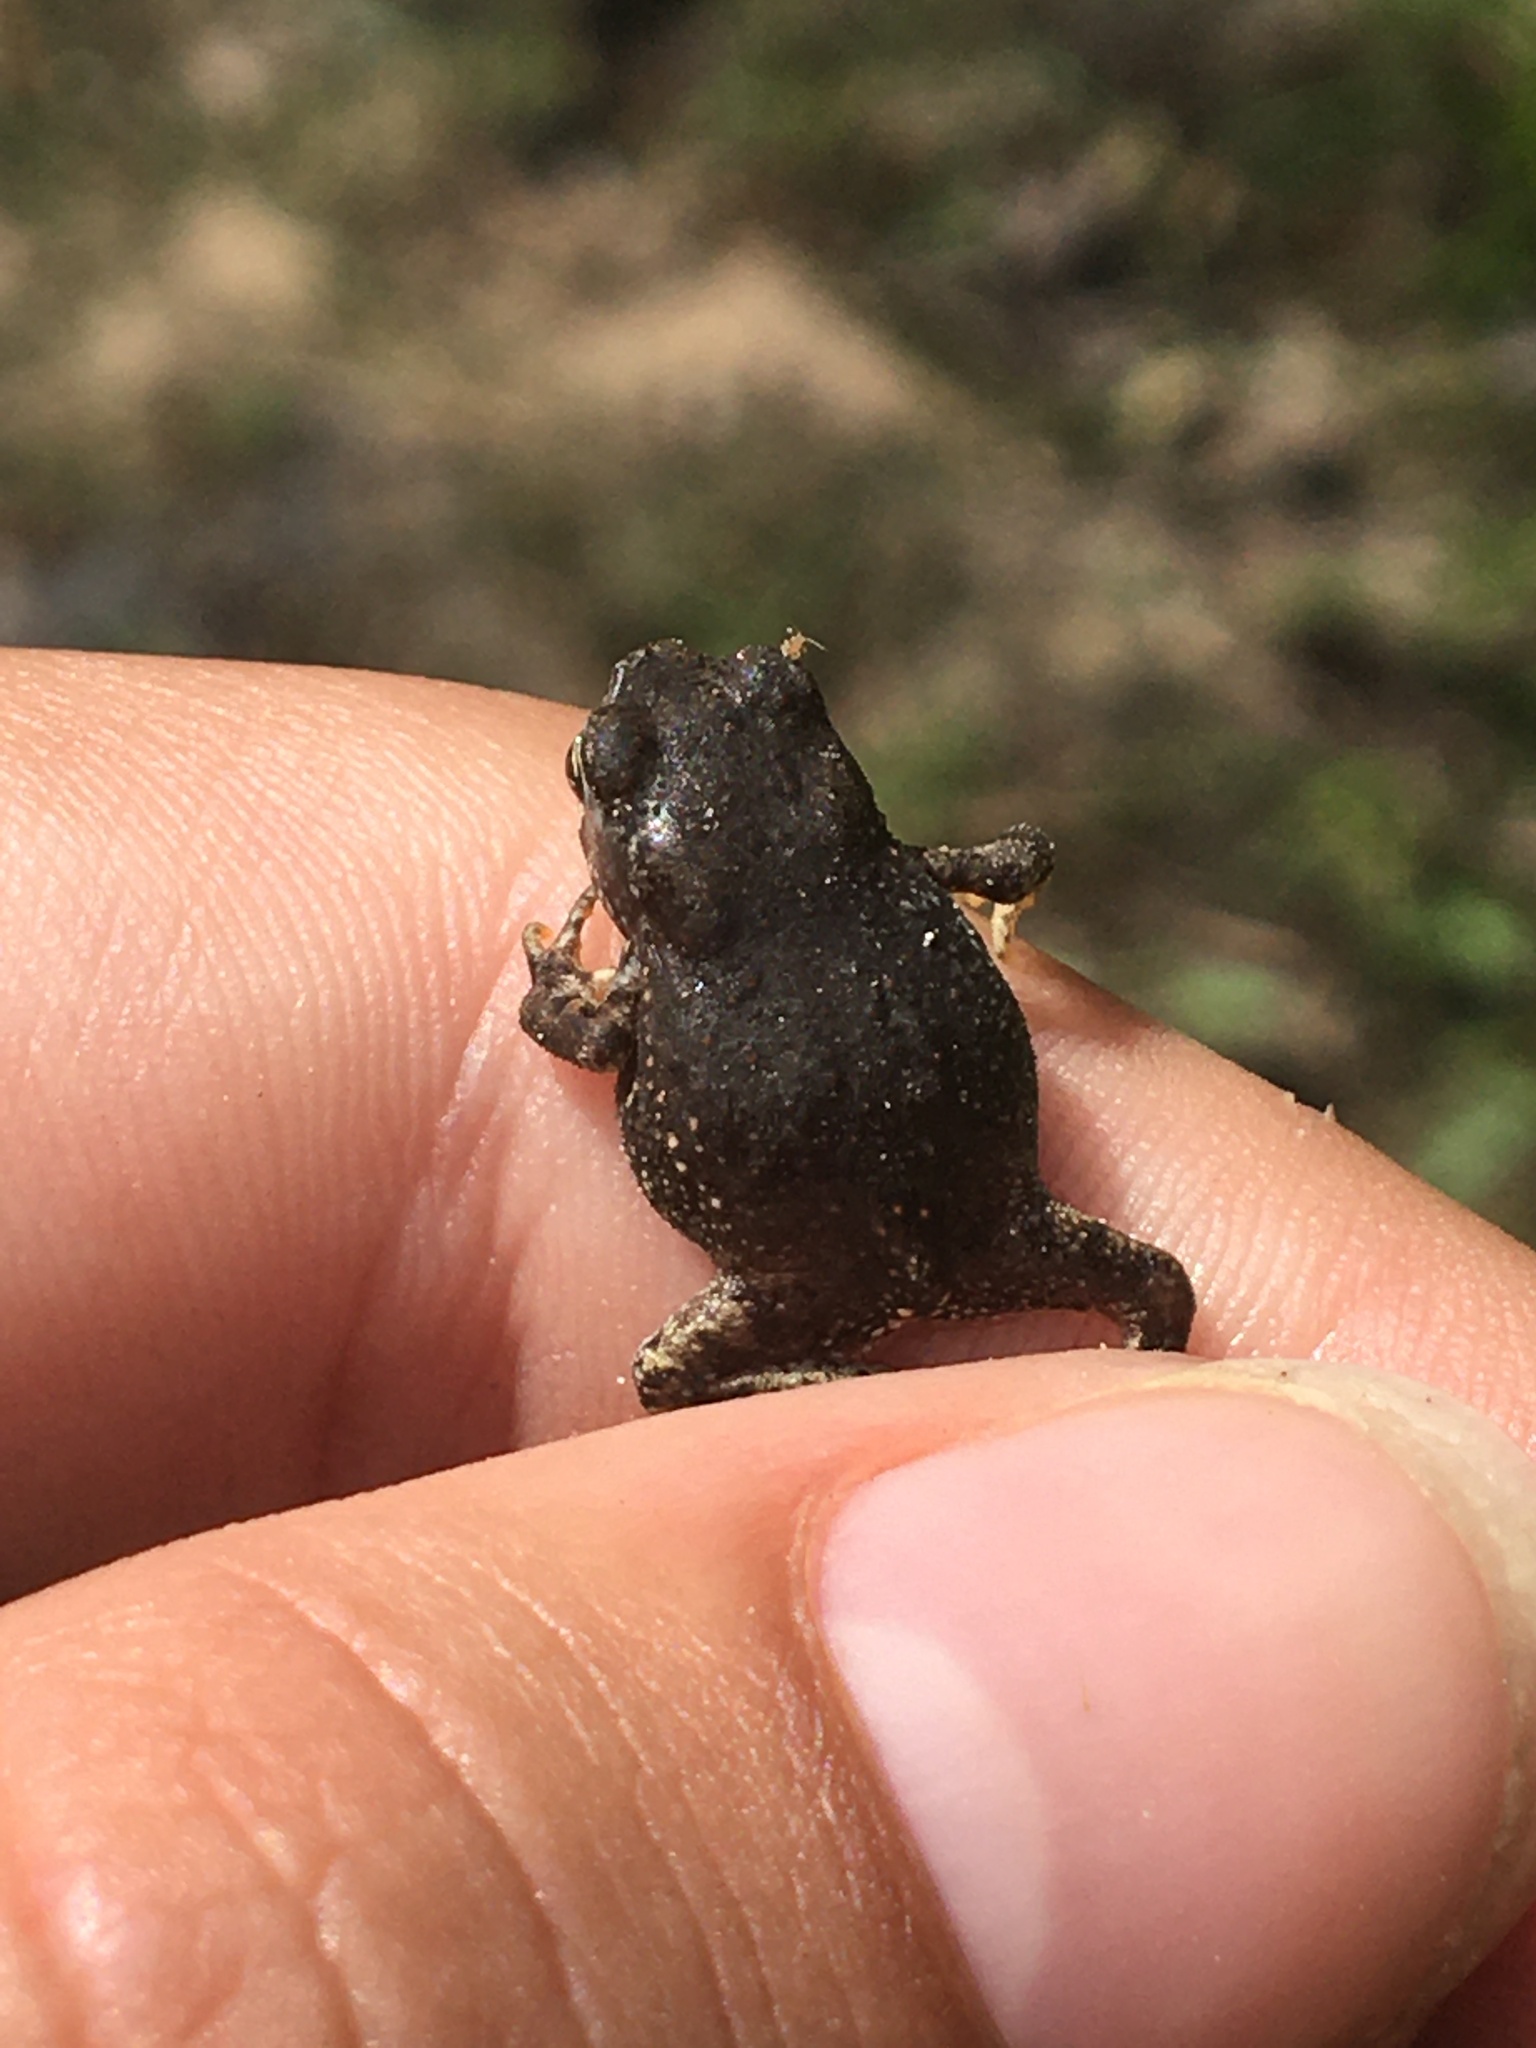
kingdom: Animalia
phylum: Chordata
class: Amphibia
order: Anura
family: Bufonidae
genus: Anaxyrus
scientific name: Anaxyrus americanus
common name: American toad
